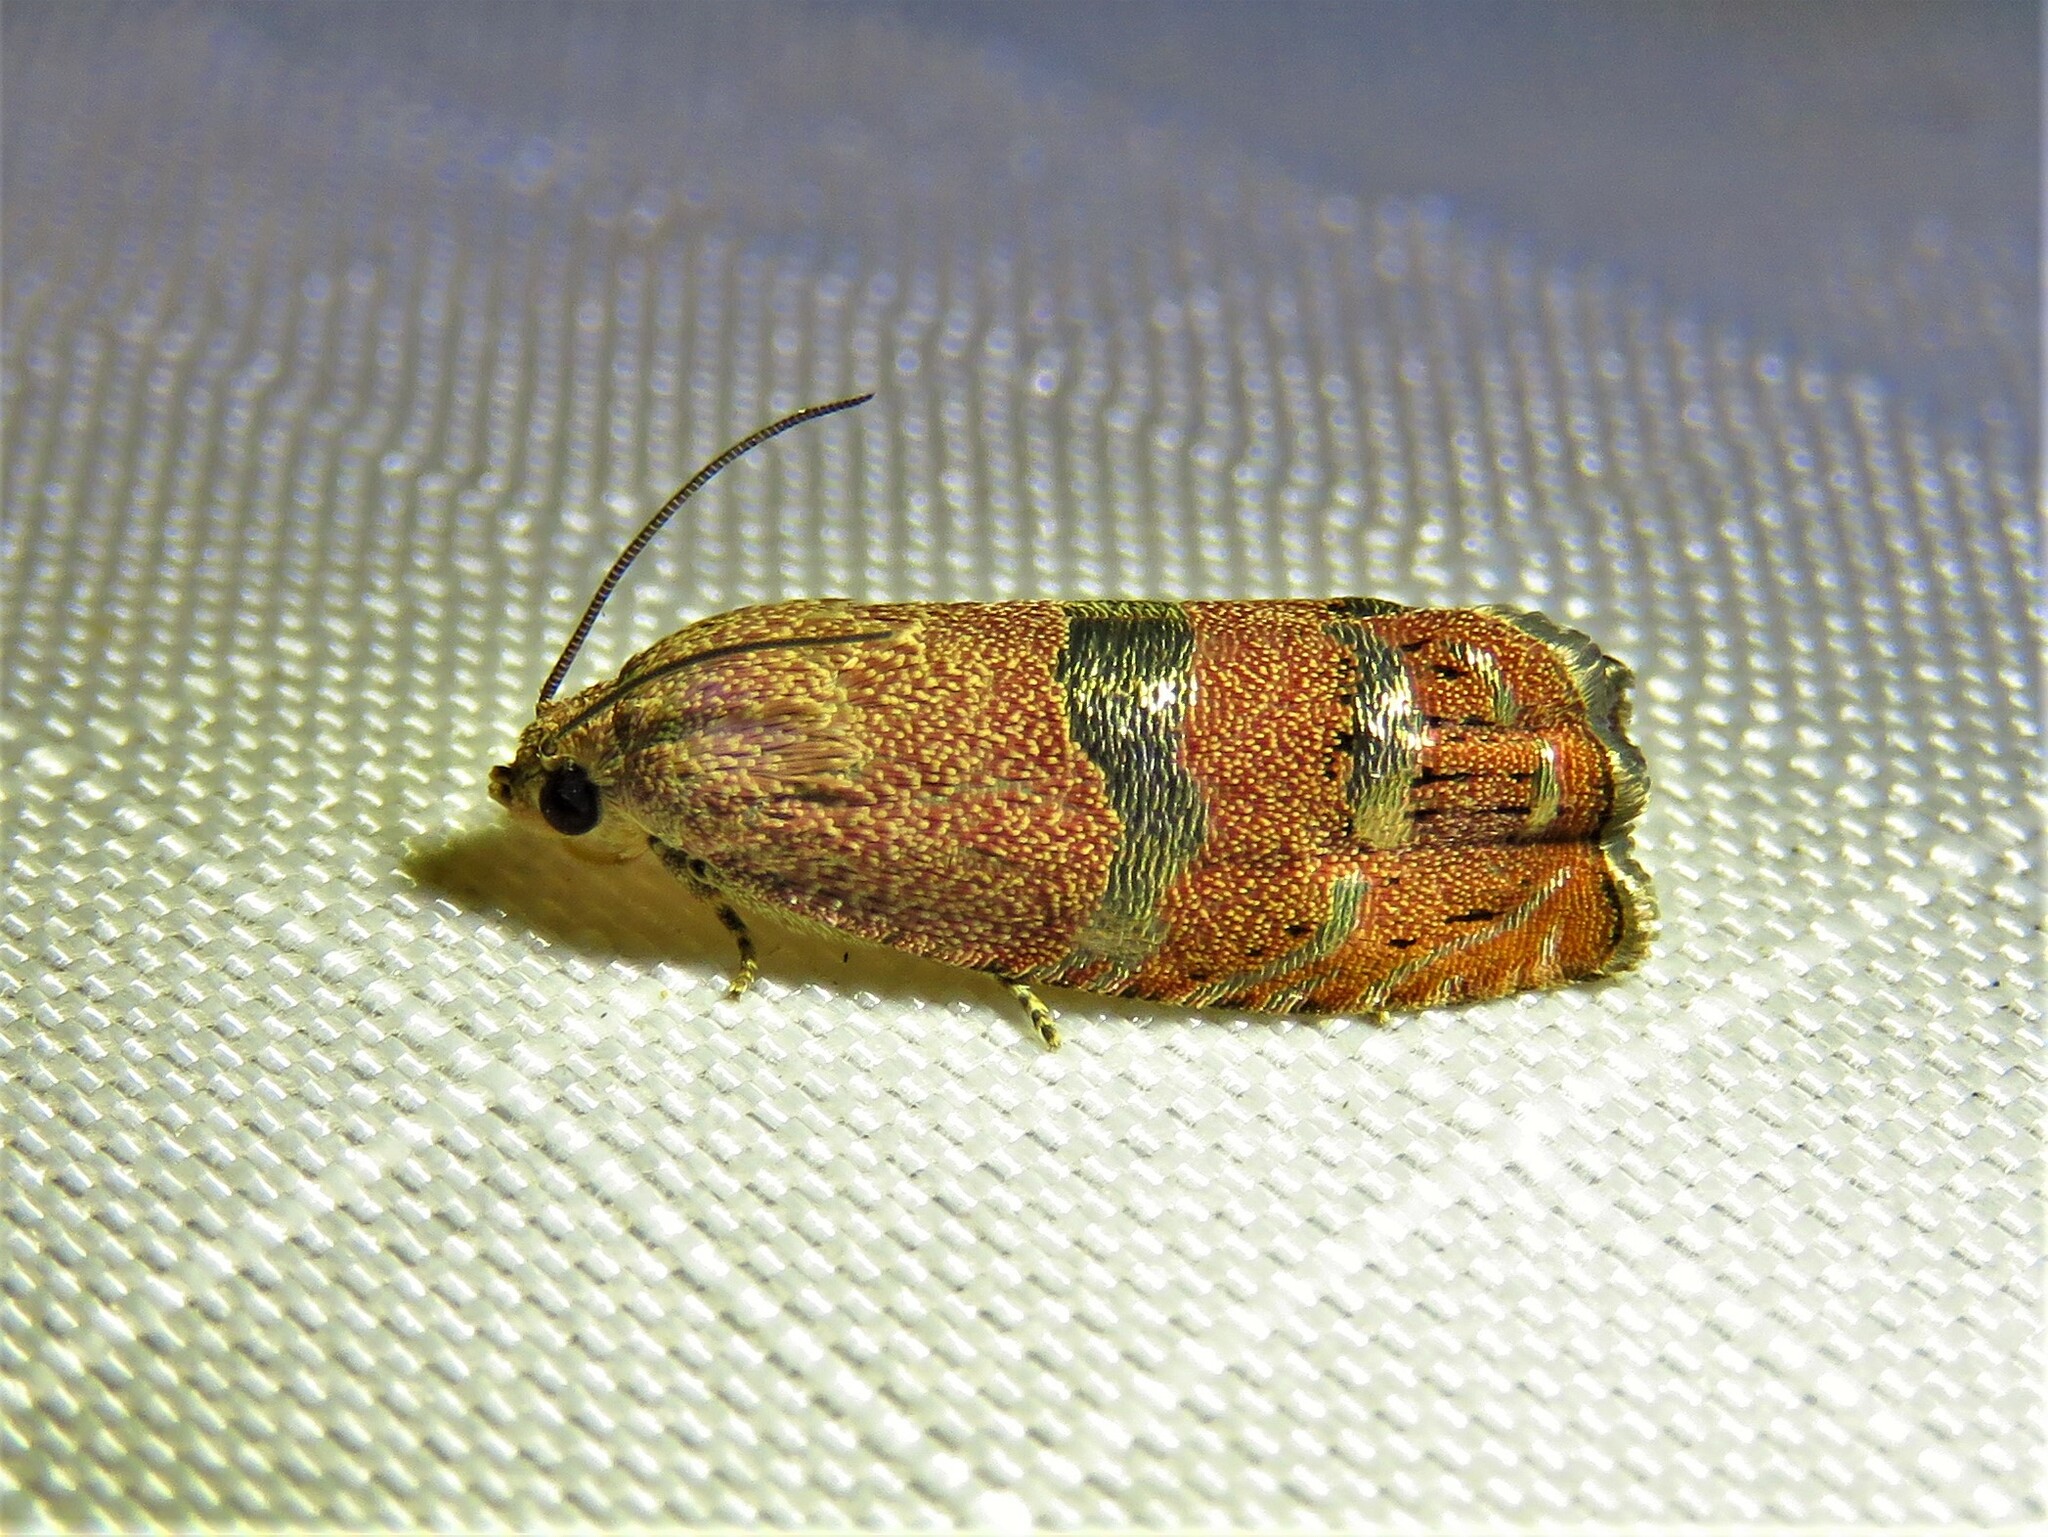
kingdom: Animalia
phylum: Arthropoda
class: Insecta
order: Lepidoptera
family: Tortricidae
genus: Cydia
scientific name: Cydia latiferreana
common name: Filbertworm moth
